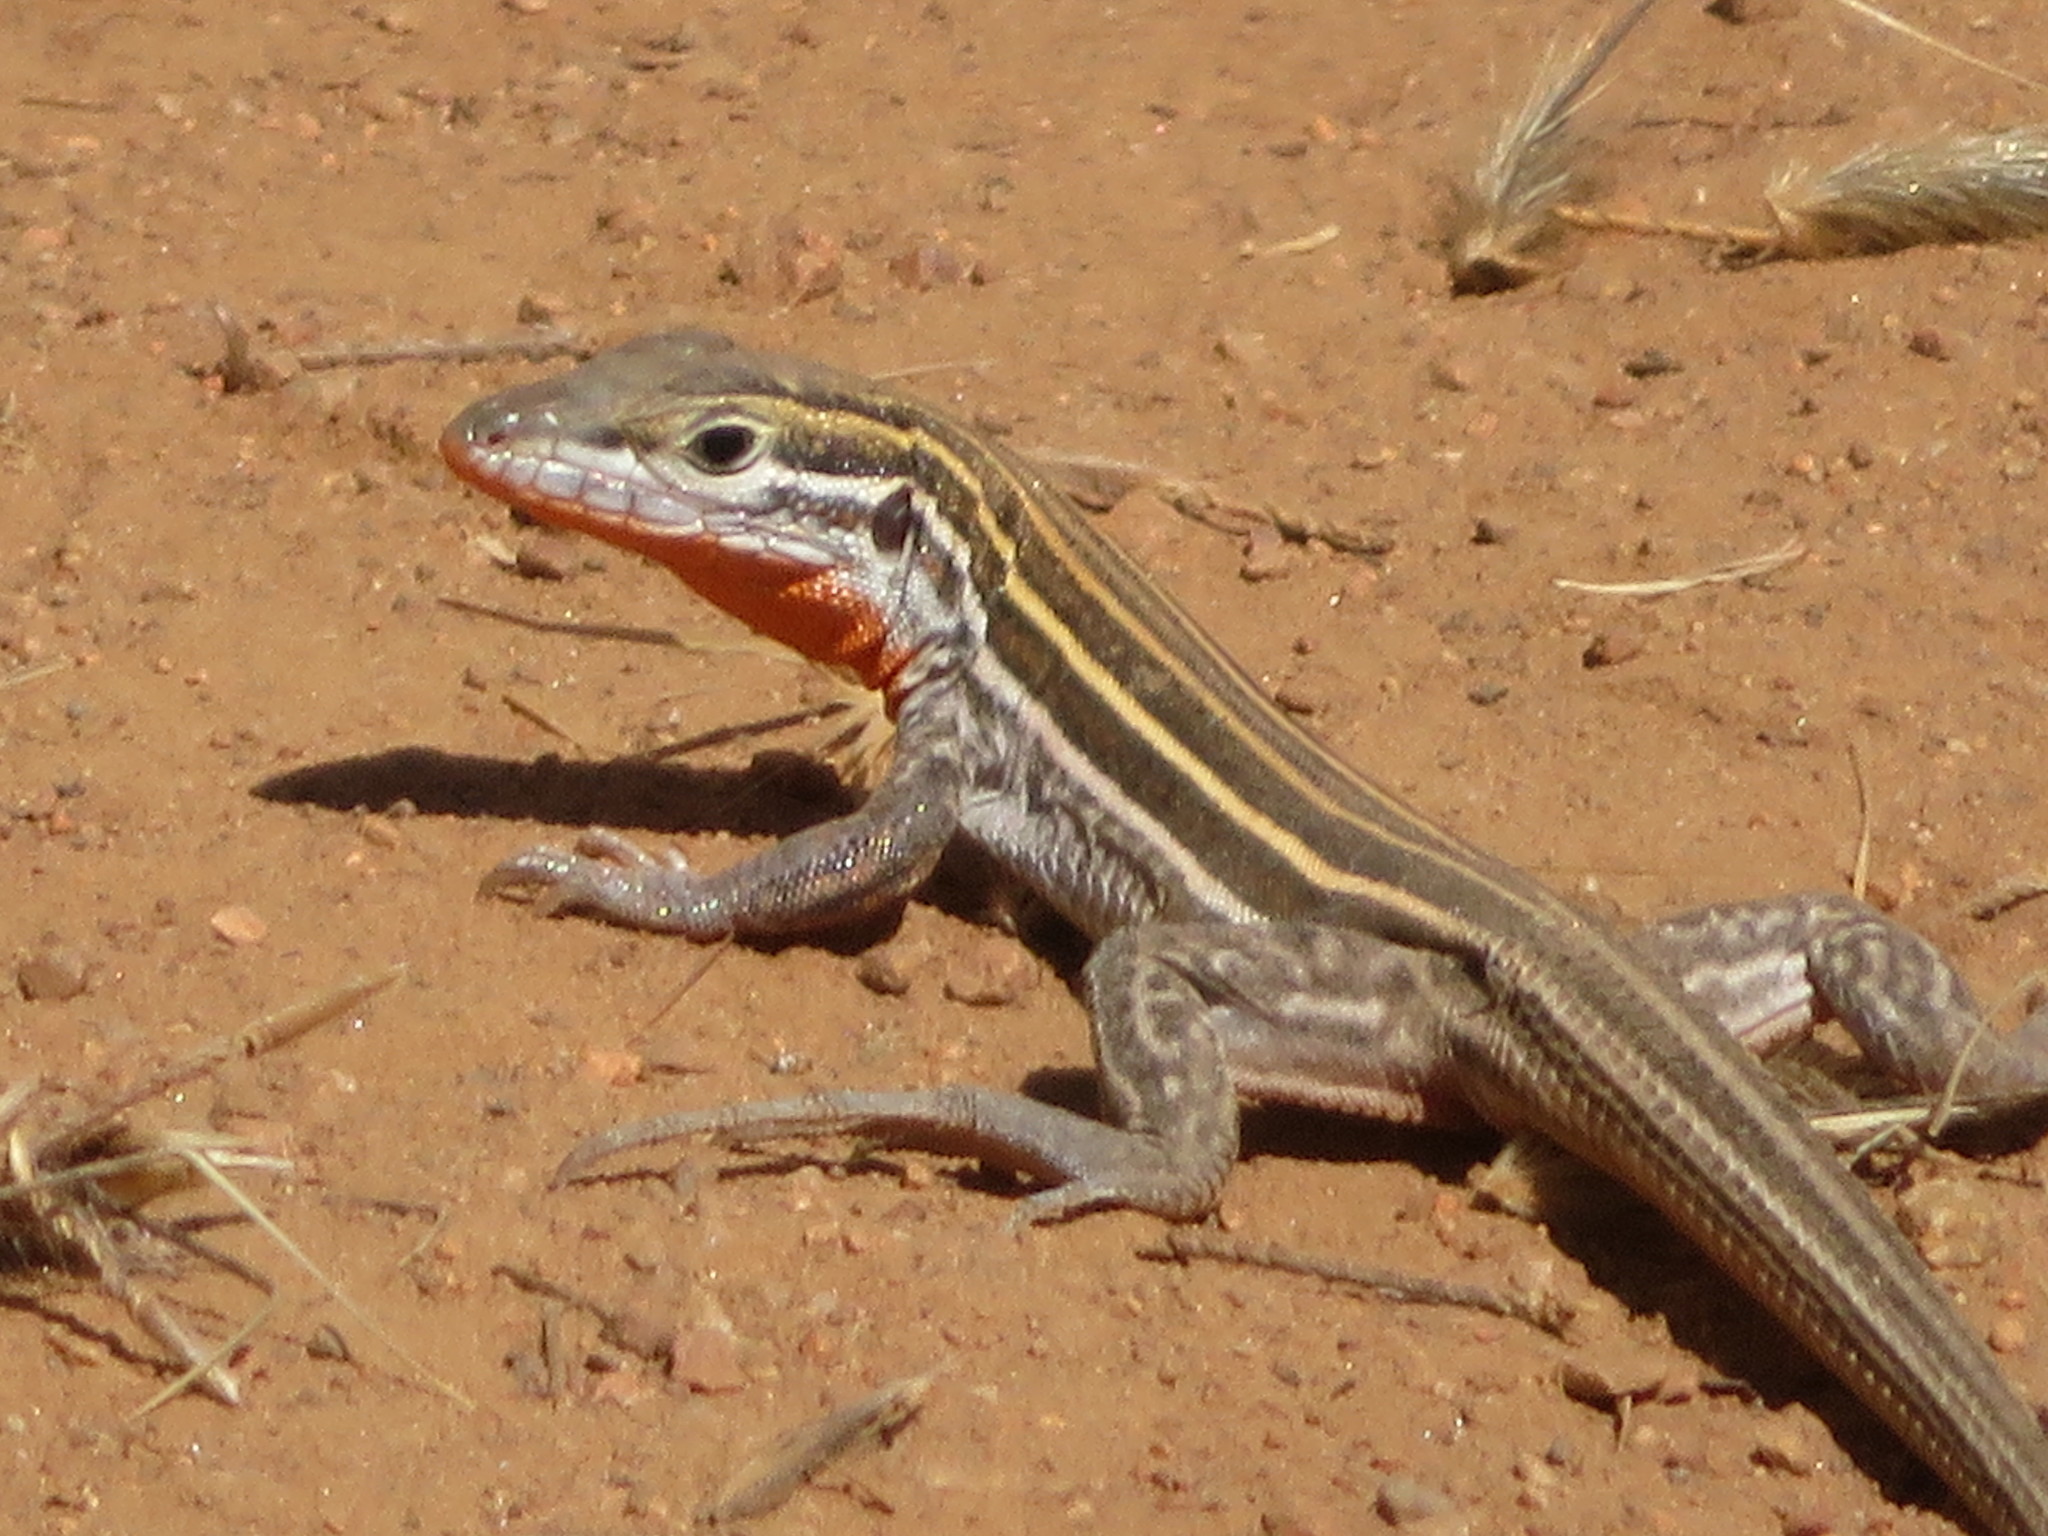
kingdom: Animalia
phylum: Chordata
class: Squamata
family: Teiidae
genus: Aspidoscelis
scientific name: Aspidoscelis hyperythrus
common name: Orange-throated race-runner
